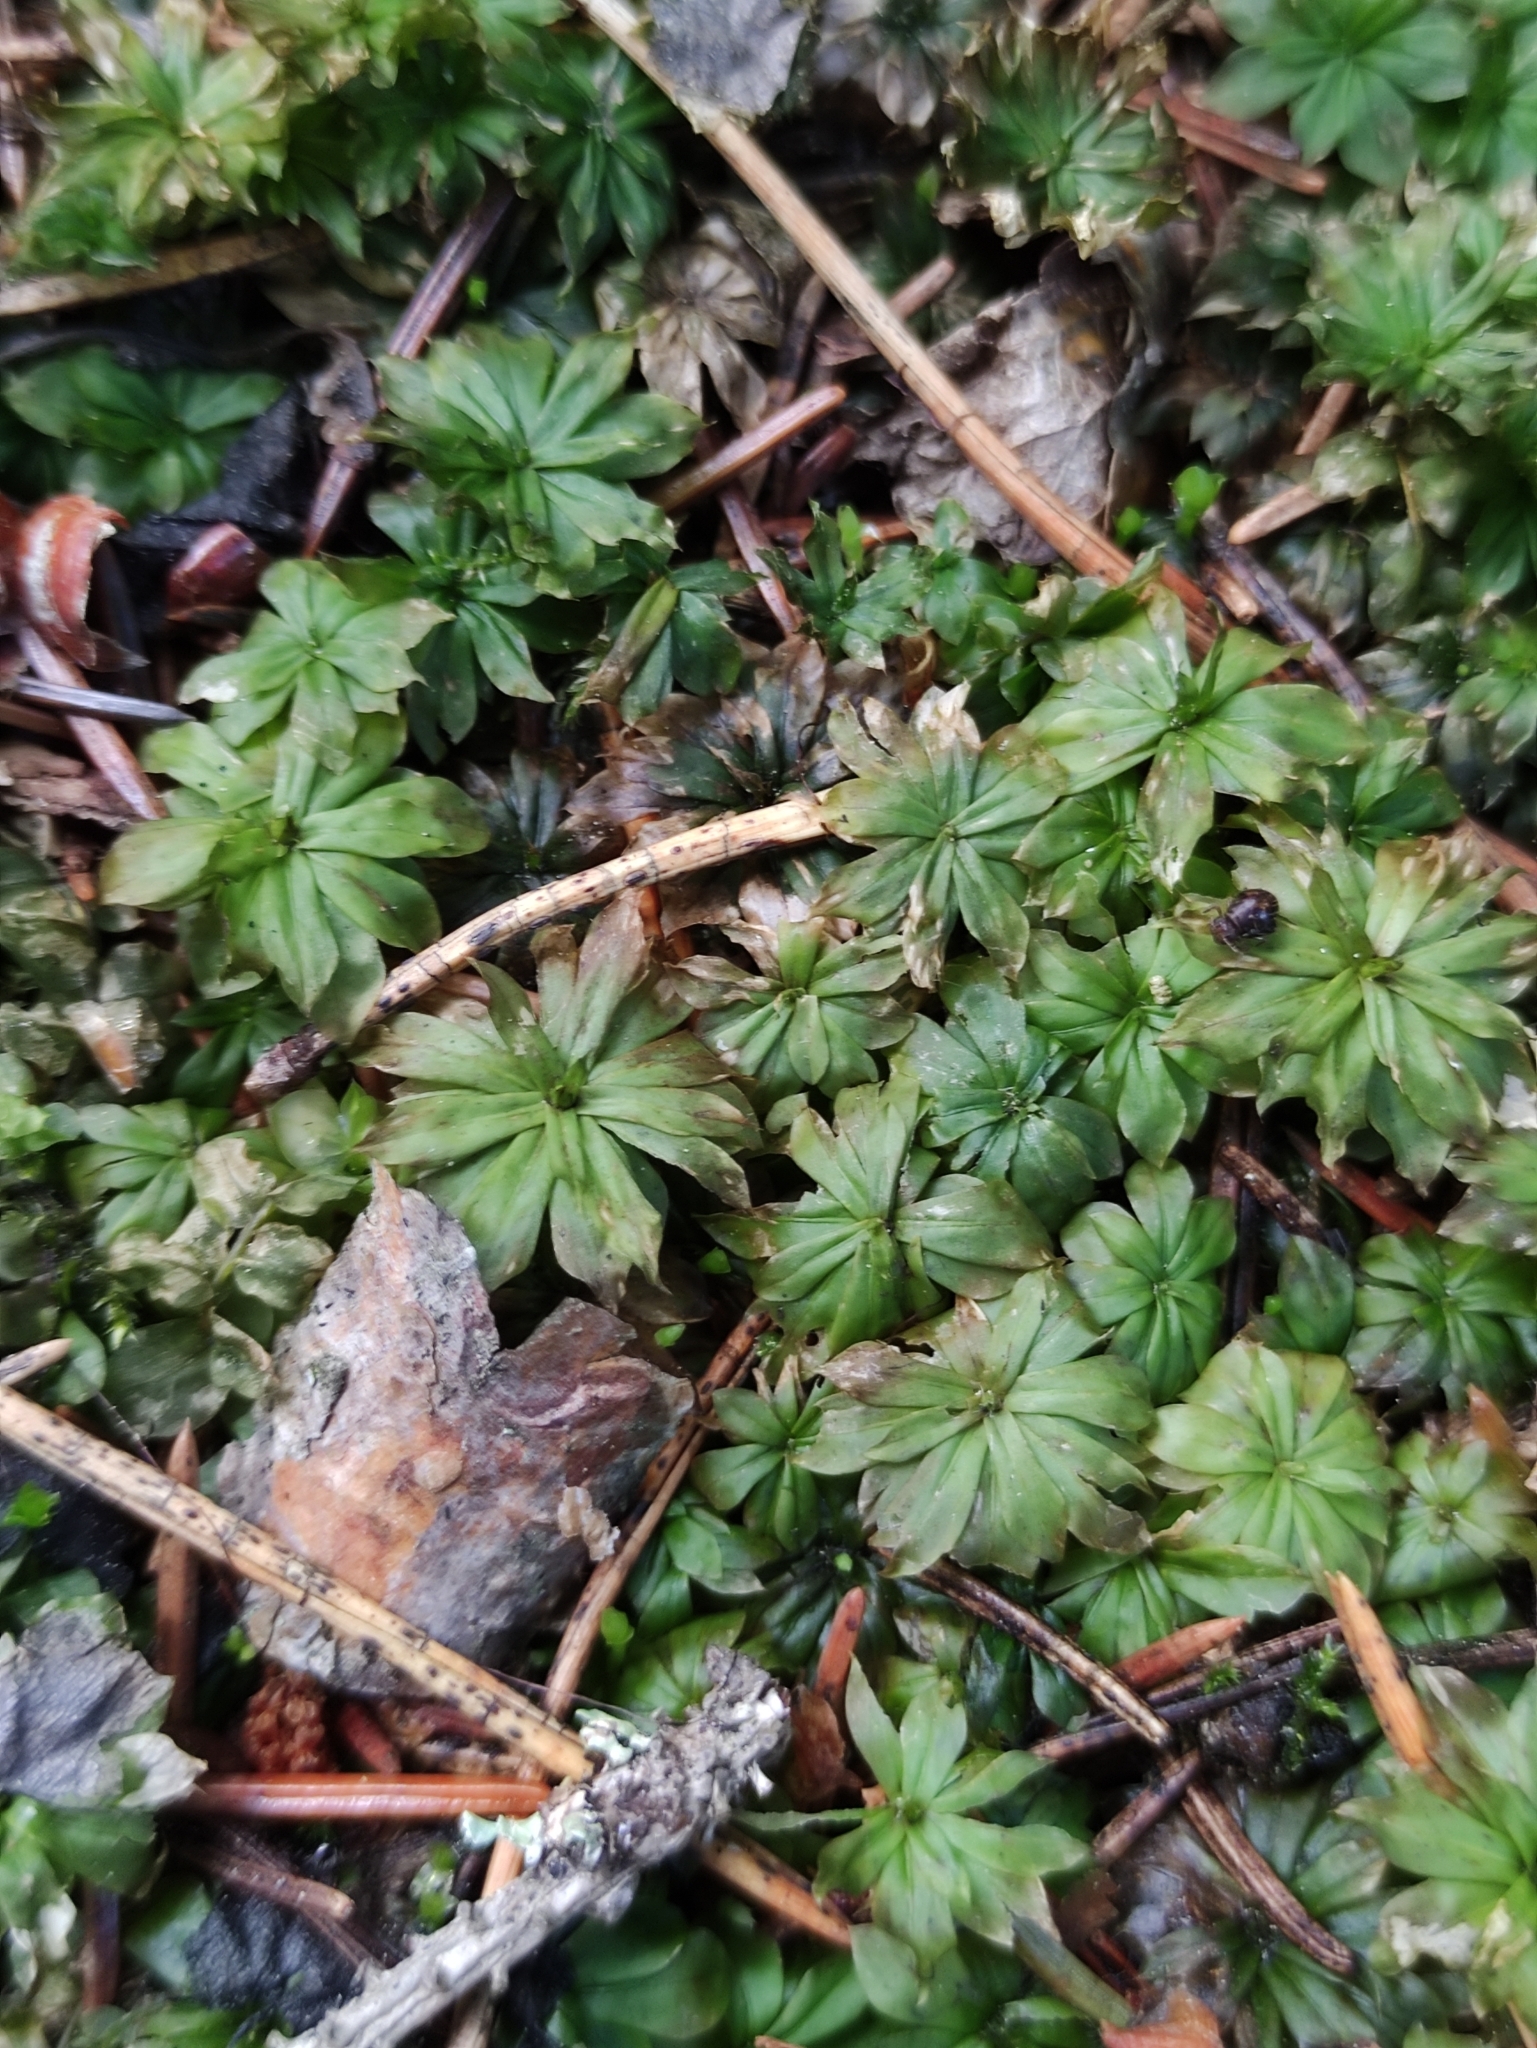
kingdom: Plantae
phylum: Bryophyta
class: Bryopsida
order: Bryales
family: Bryaceae
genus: Rhodobryum
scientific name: Rhodobryum roseum
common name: Rose-moss
